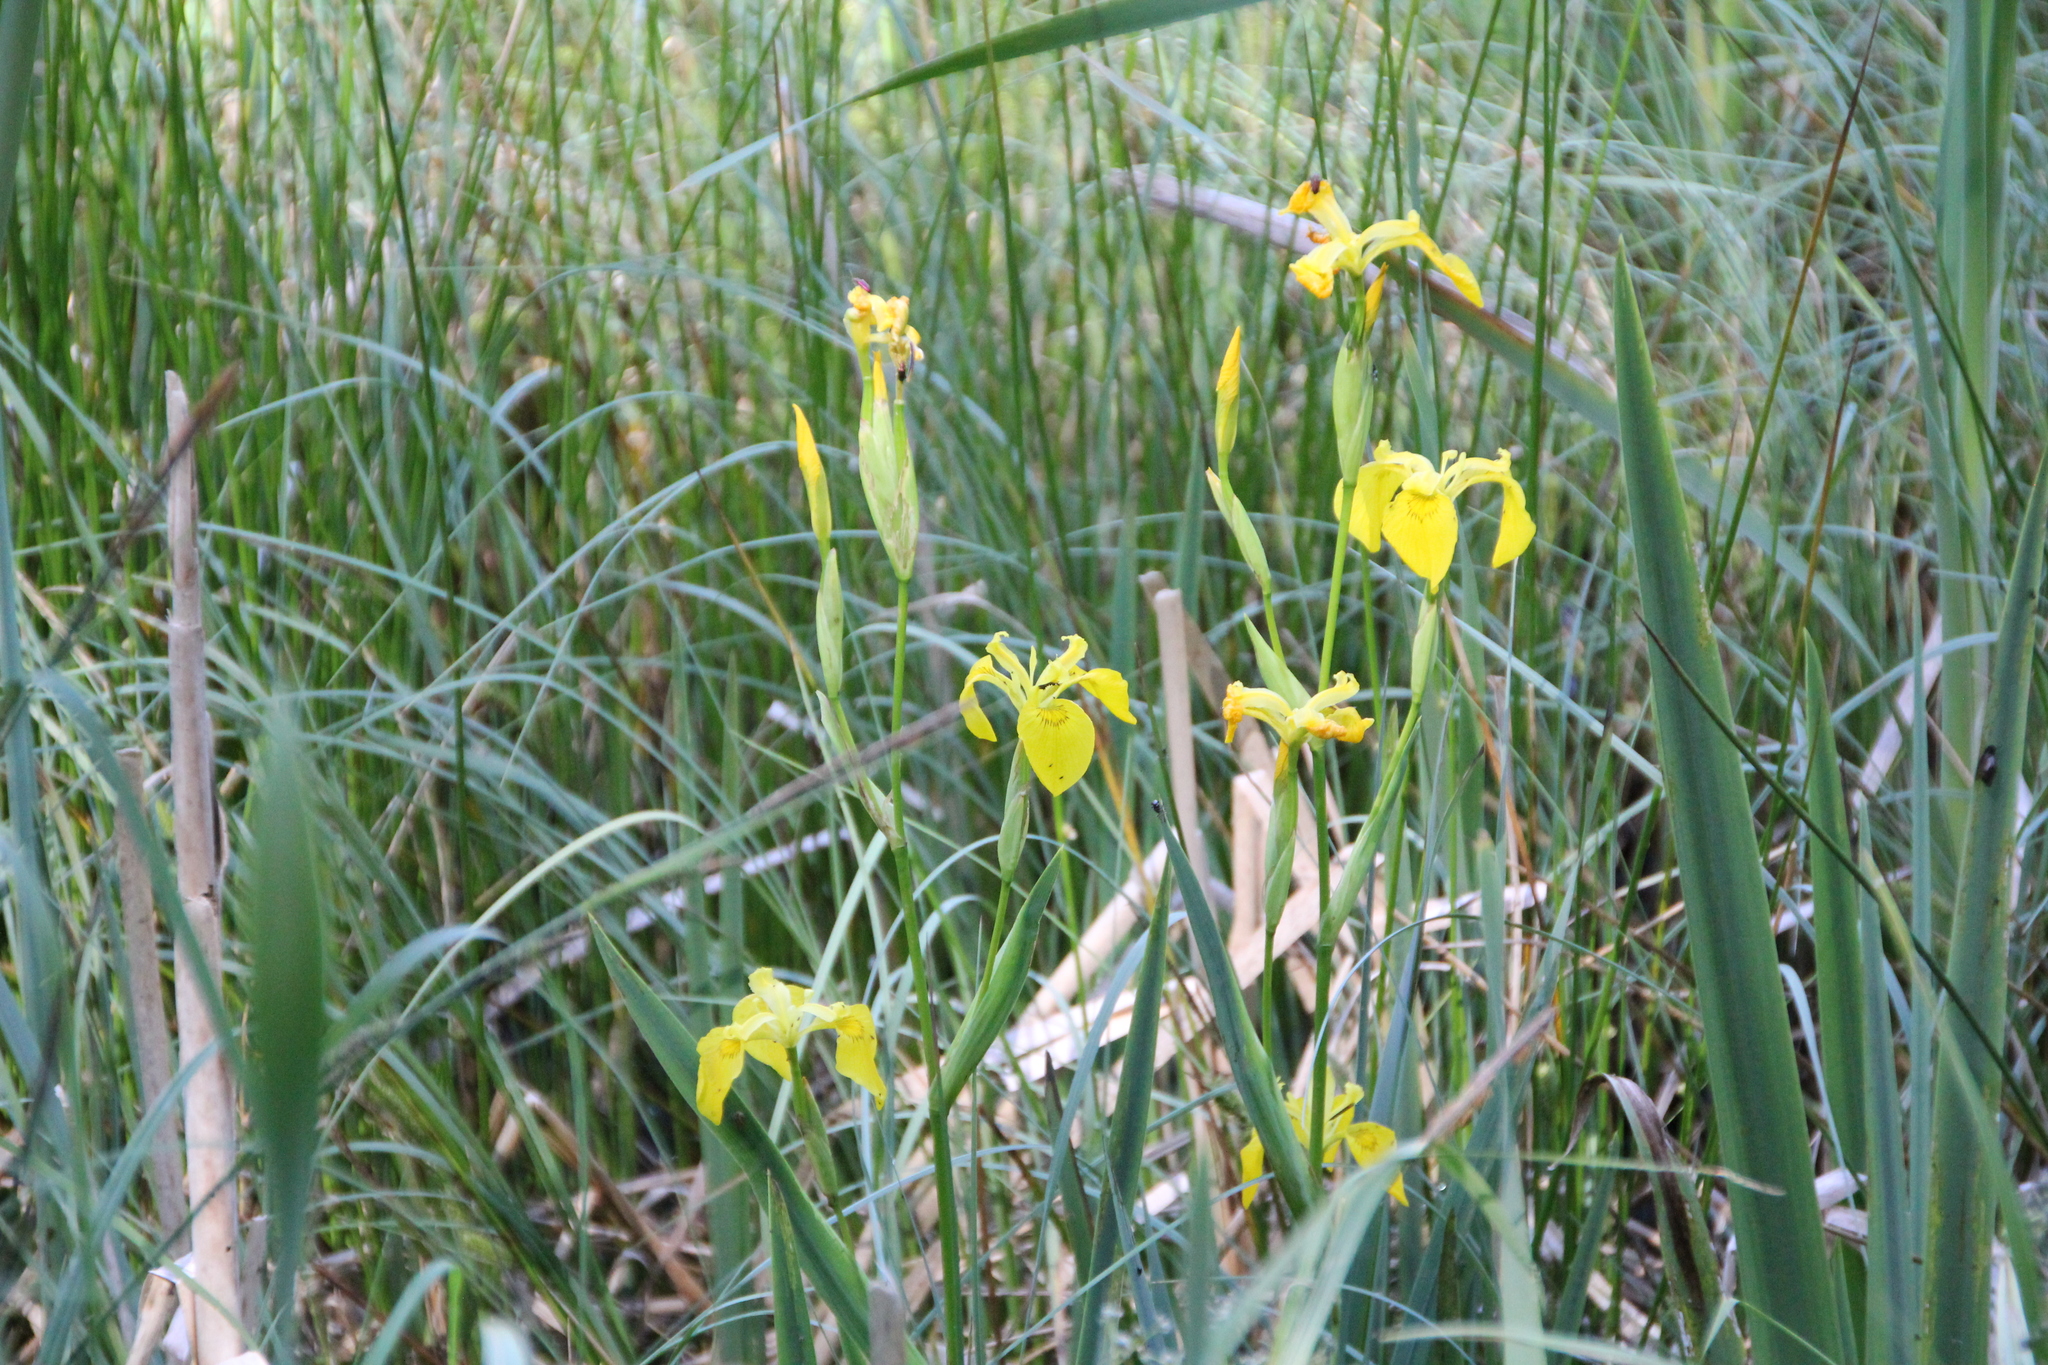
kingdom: Plantae
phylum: Tracheophyta
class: Liliopsida
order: Asparagales
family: Iridaceae
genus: Iris
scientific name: Iris pseudacorus
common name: Yellow flag
